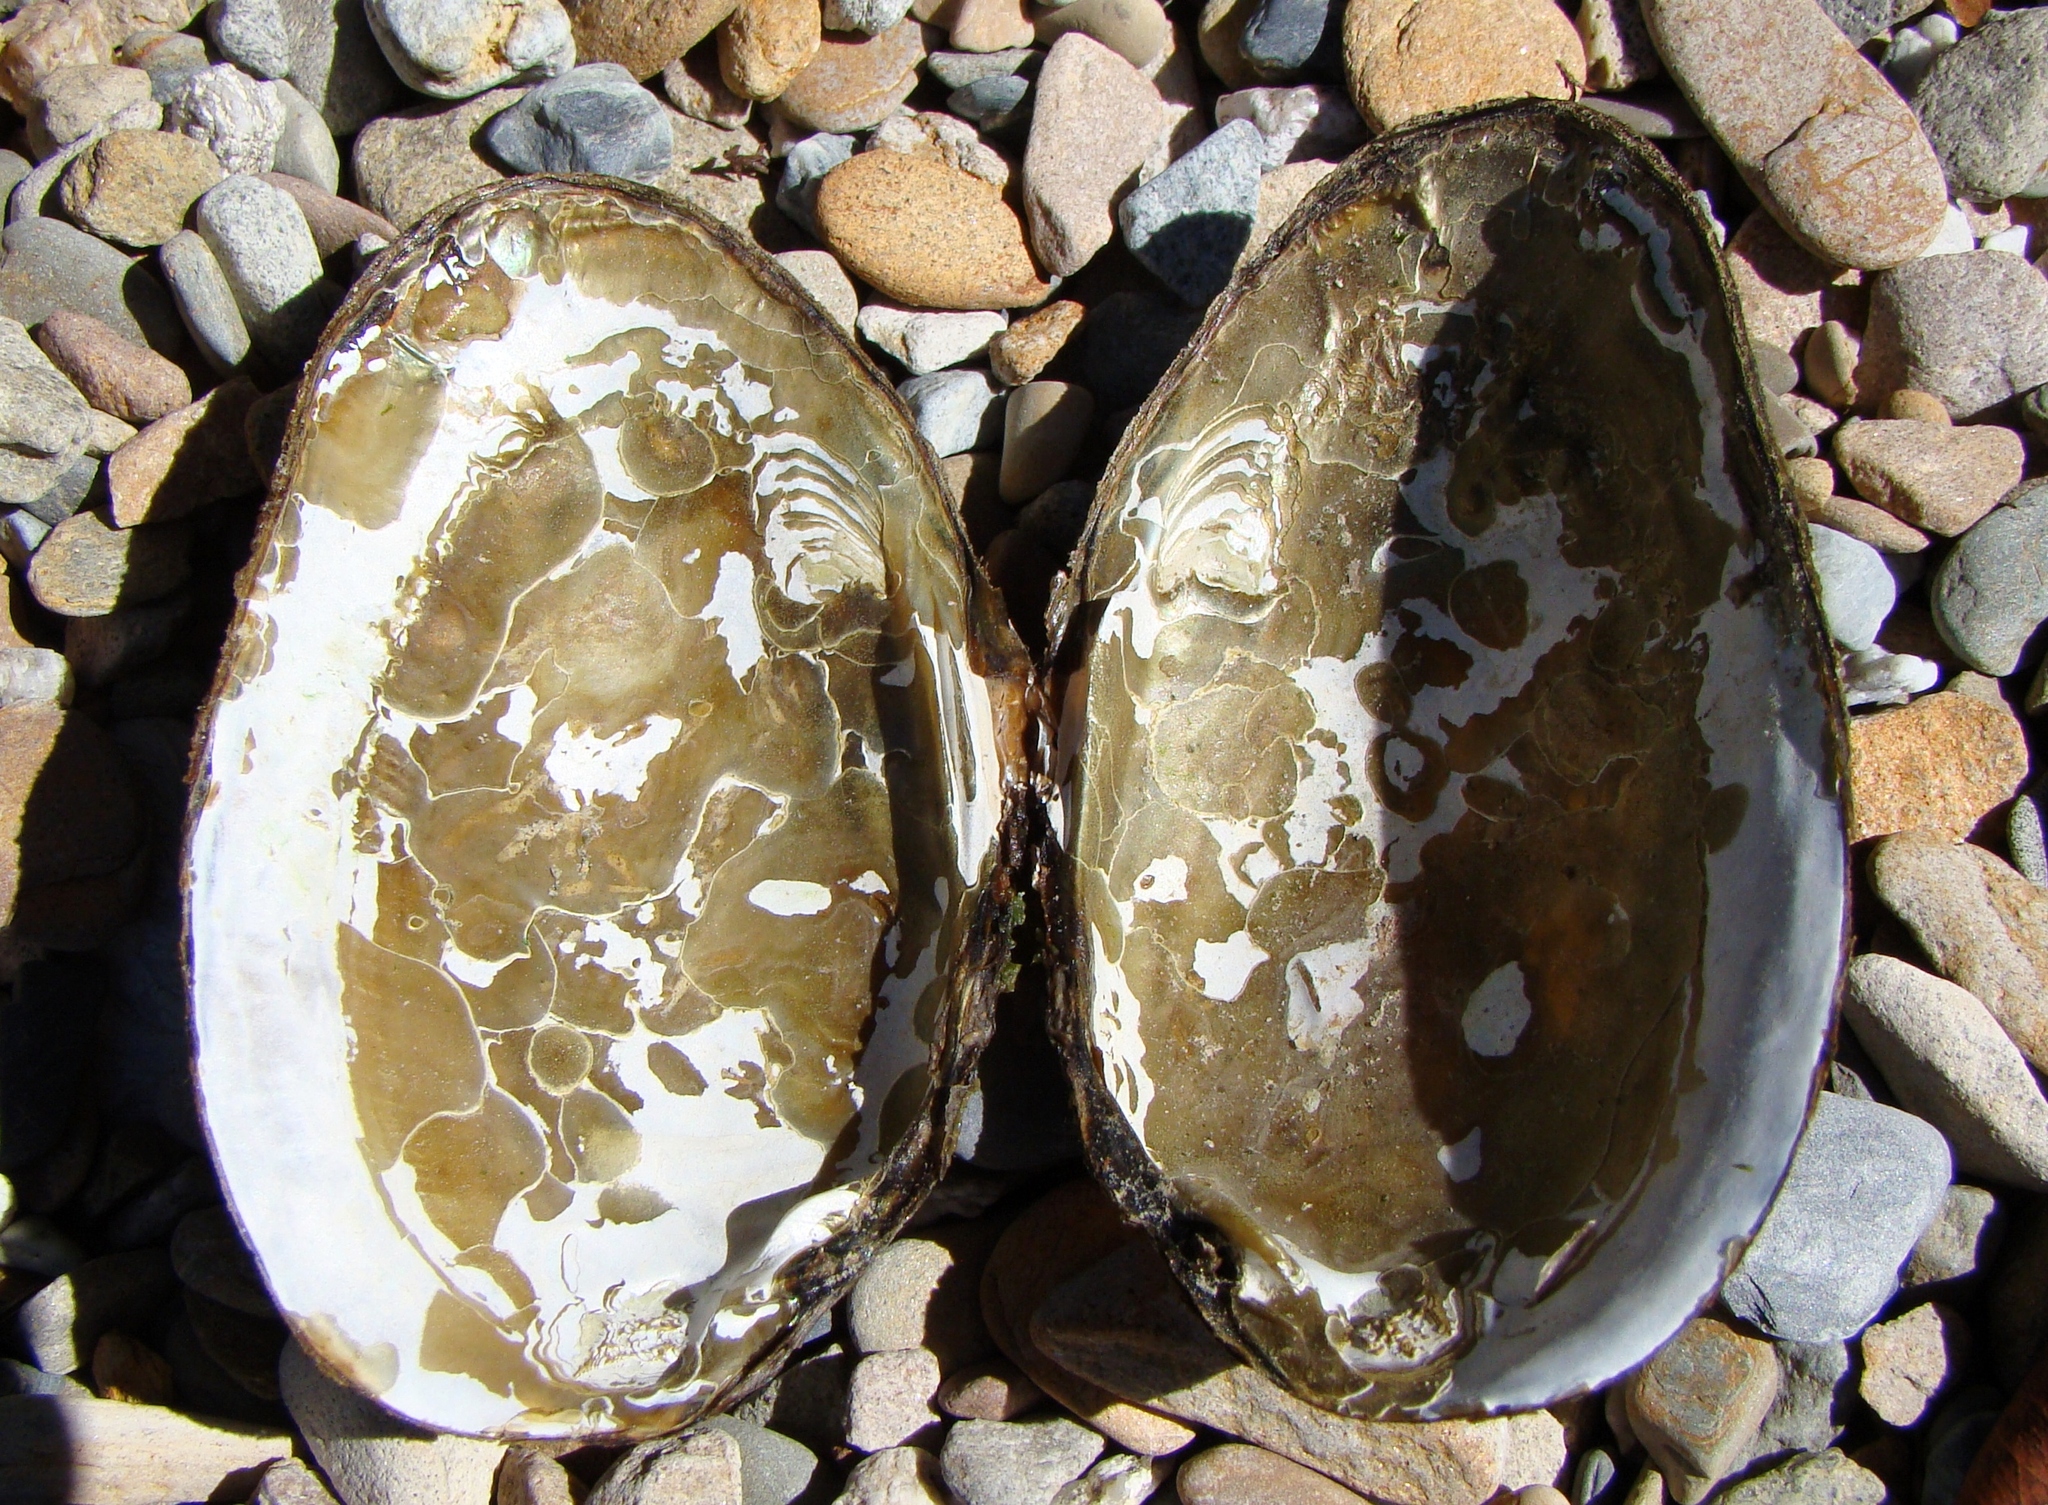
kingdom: Animalia
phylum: Mollusca
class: Bivalvia
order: Unionida
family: Hyriidae
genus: Echyridella
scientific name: Echyridella menziesii
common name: New zealand freshwater mussel
